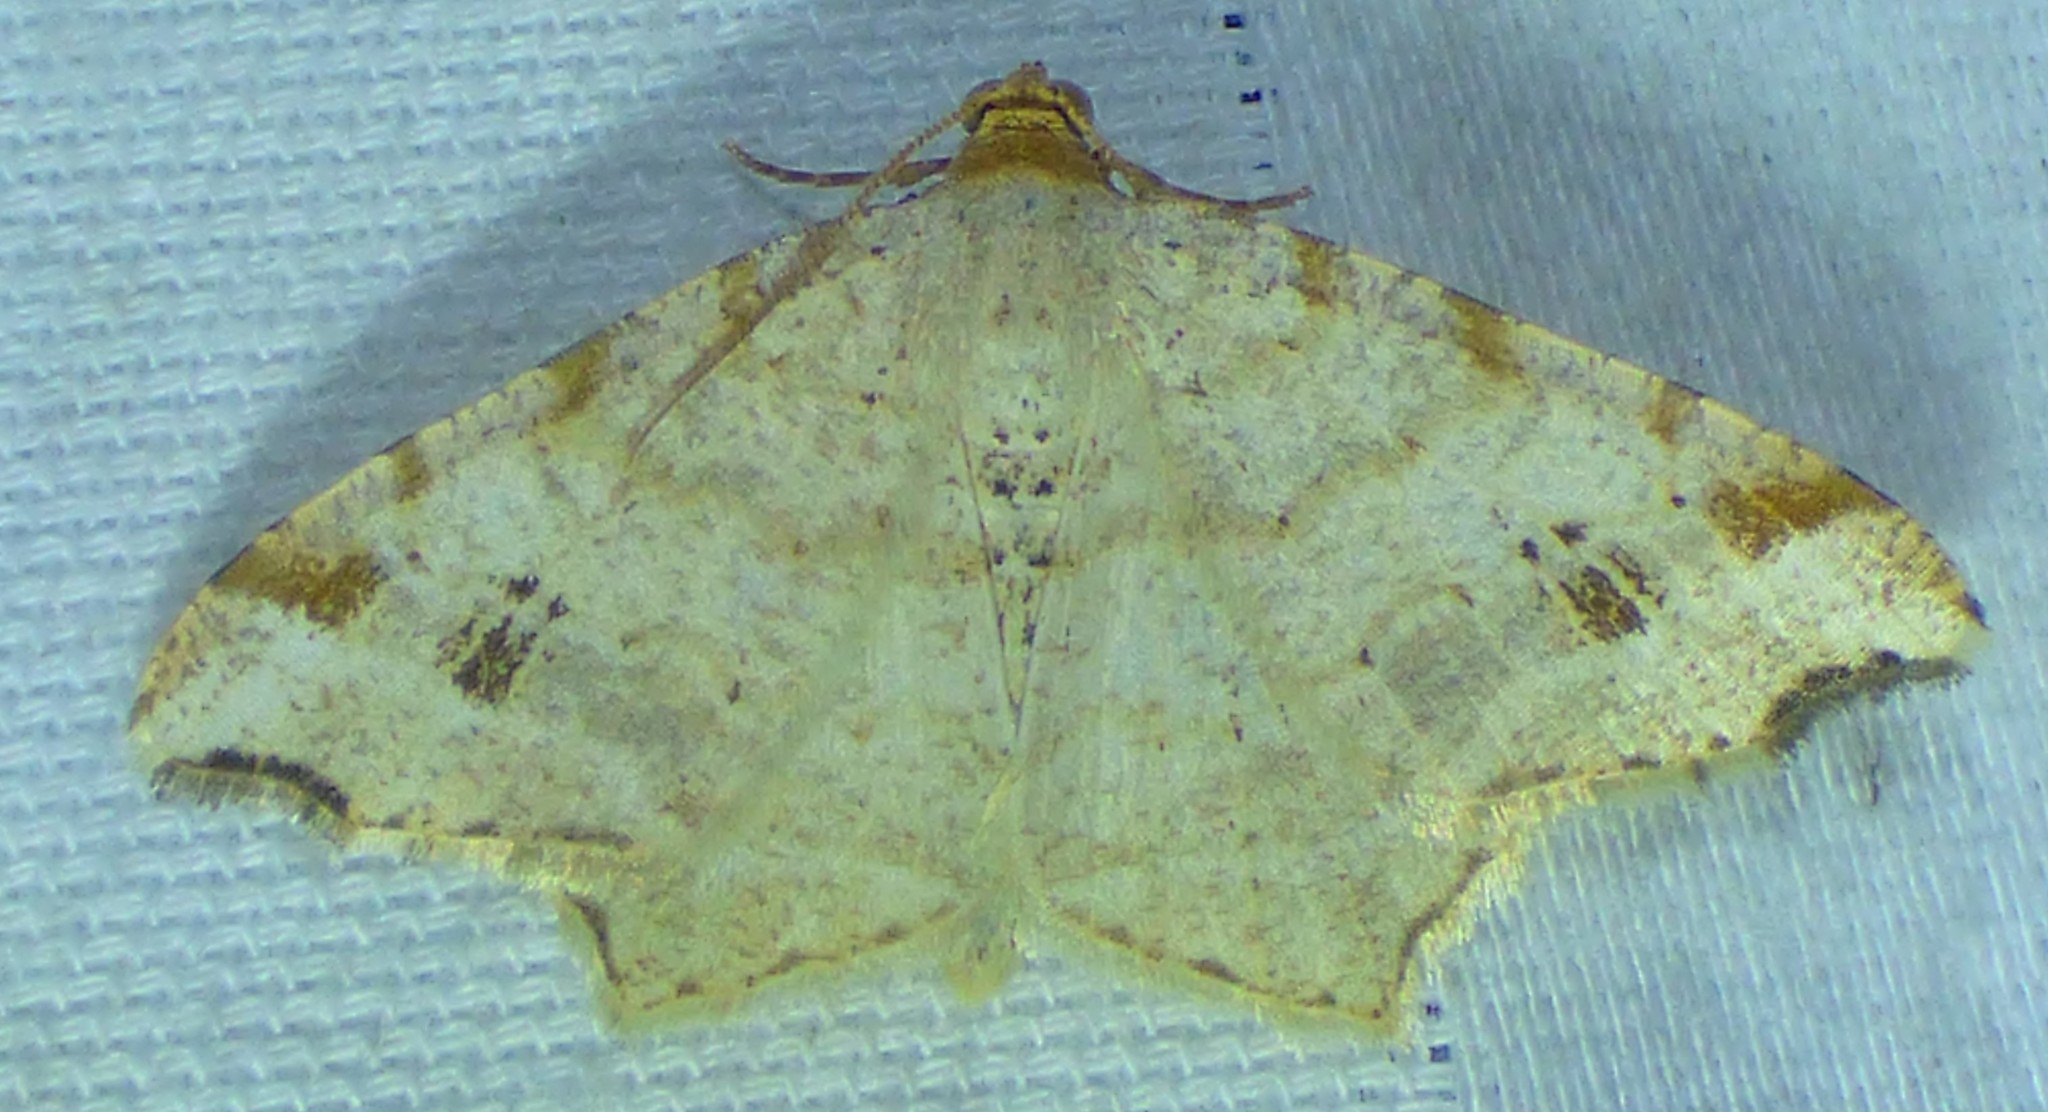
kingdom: Animalia
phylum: Arthropoda
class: Insecta
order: Lepidoptera
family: Geometridae
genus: Macaria
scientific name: Macaria aemulataria
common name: Common angle
